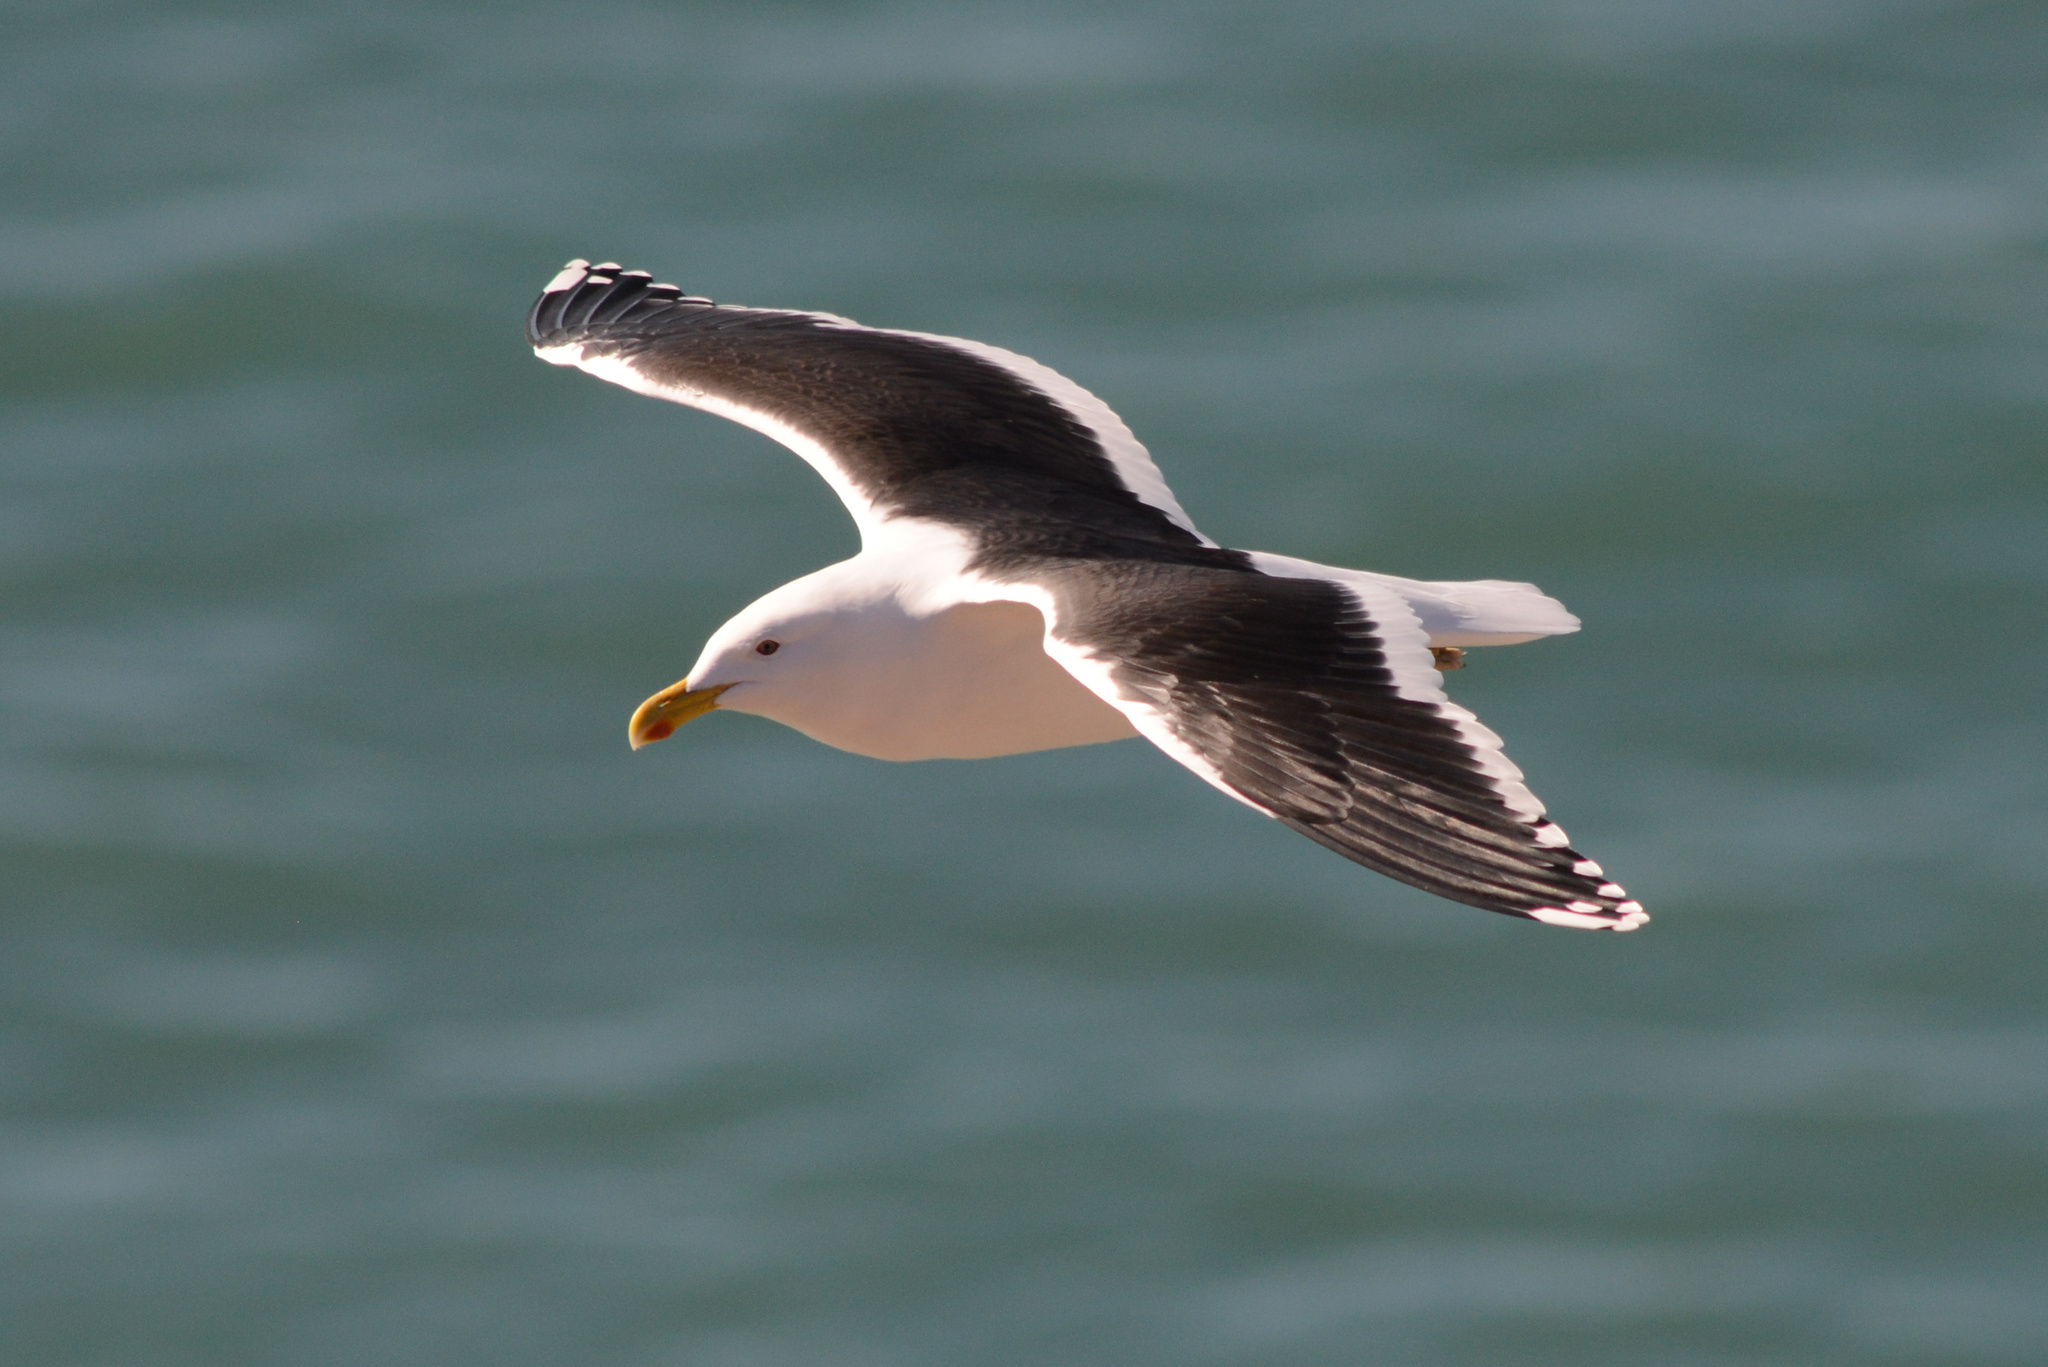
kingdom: Animalia
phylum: Chordata
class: Aves
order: Charadriiformes
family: Laridae
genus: Larus
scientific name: Larus dominicanus
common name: Kelp gull
